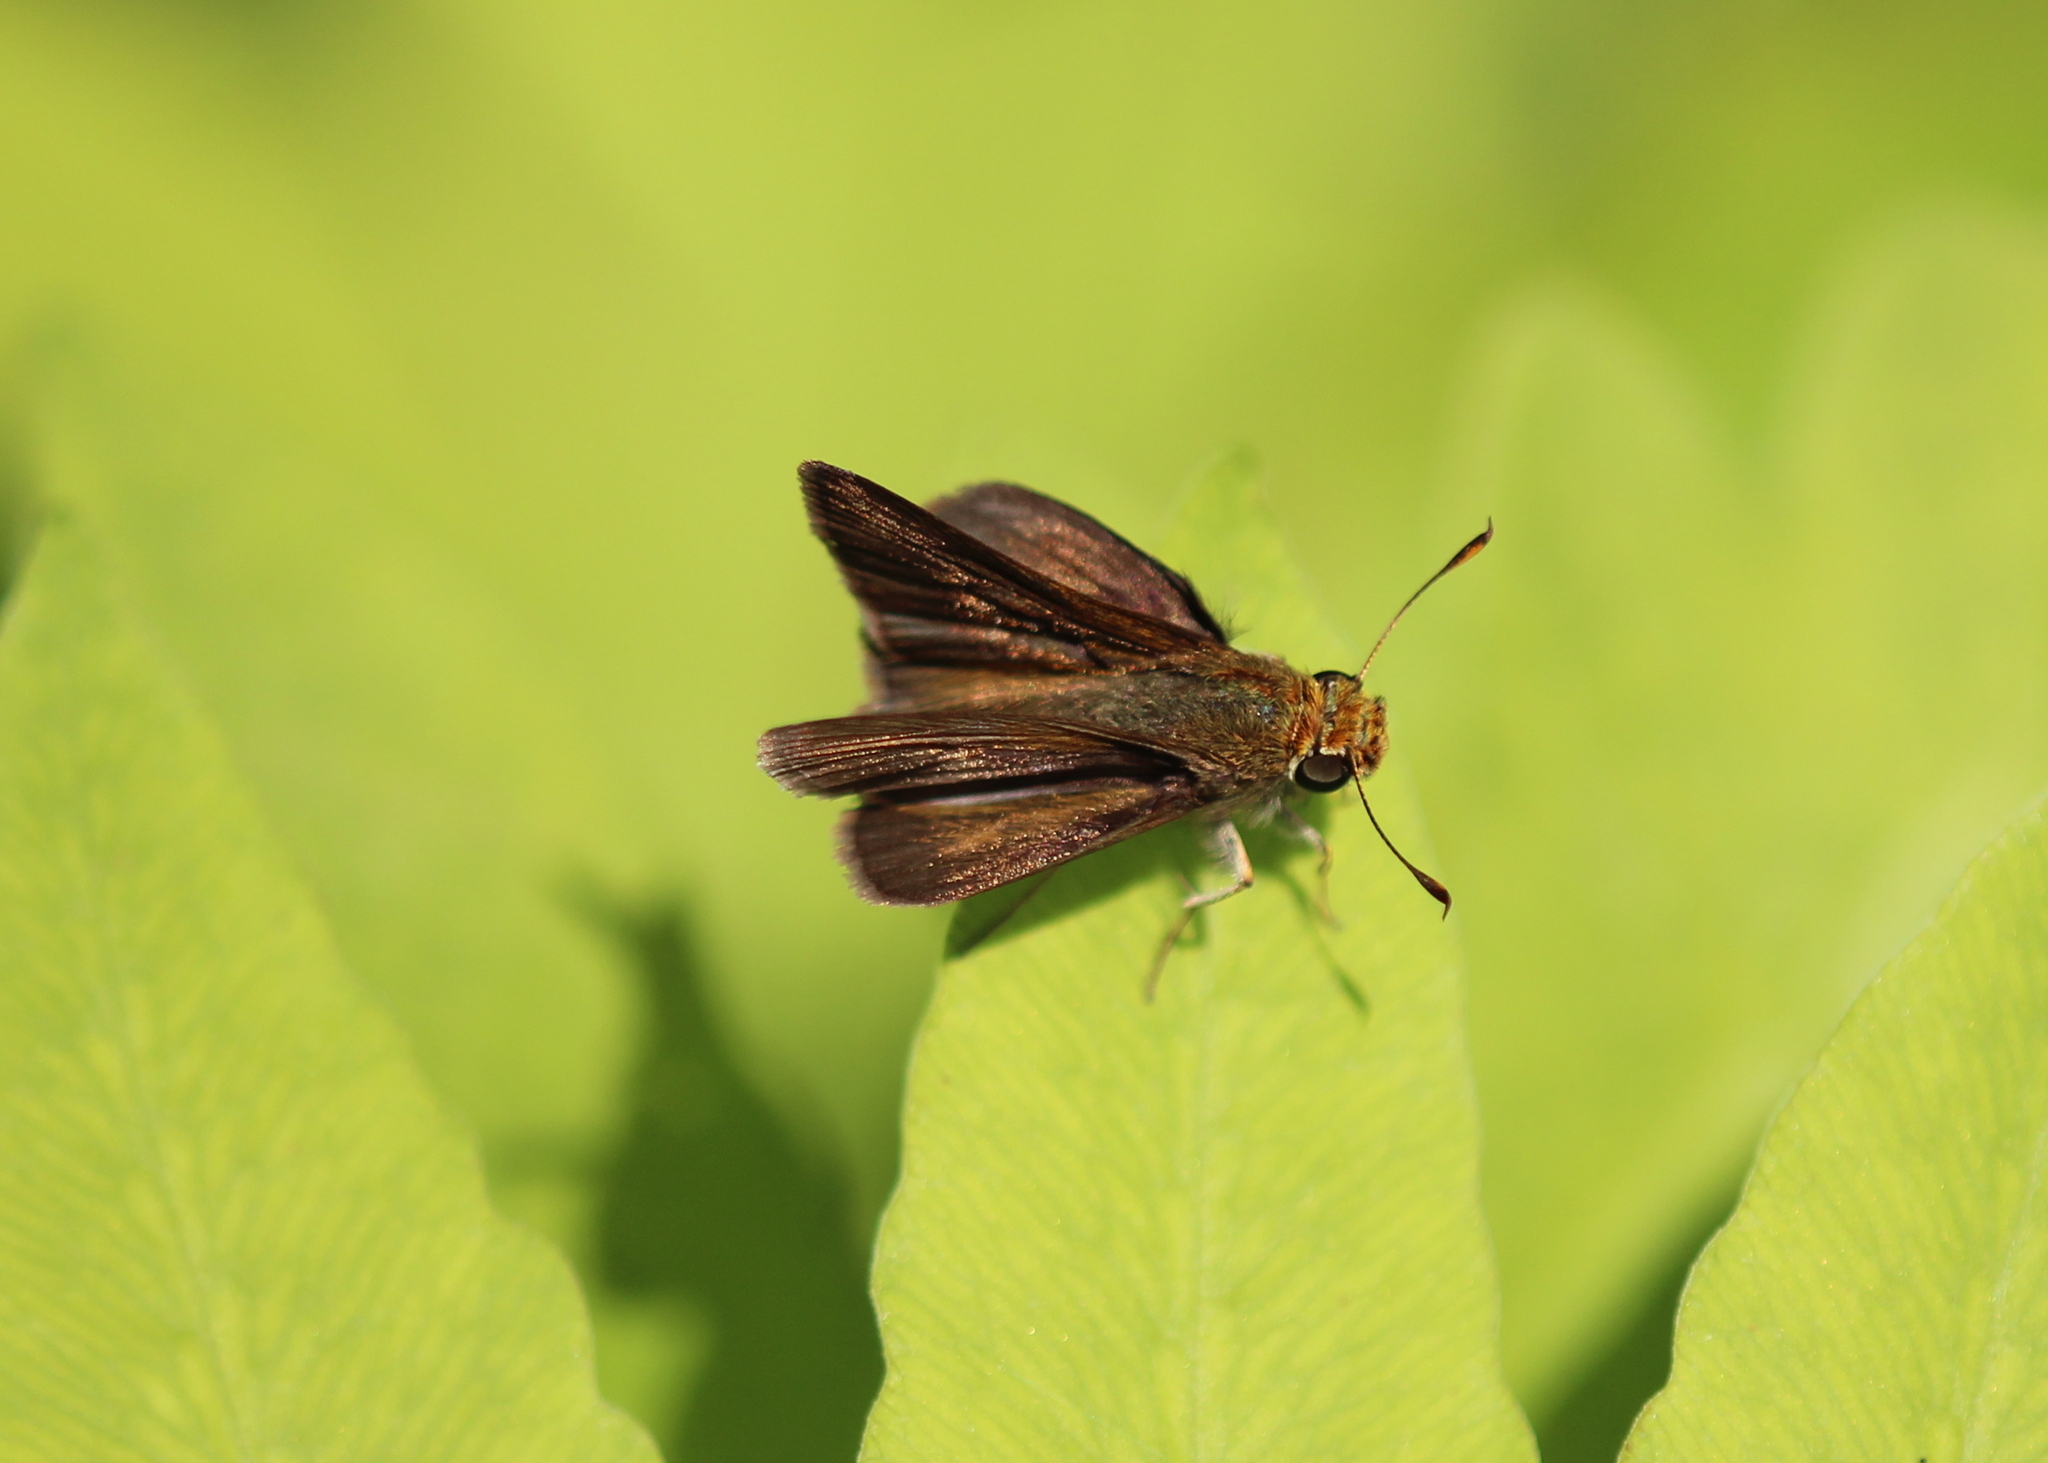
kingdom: Animalia
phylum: Arthropoda
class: Insecta
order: Lepidoptera
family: Hesperiidae
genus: Euphyes
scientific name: Euphyes vestris
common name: Dun skipper
